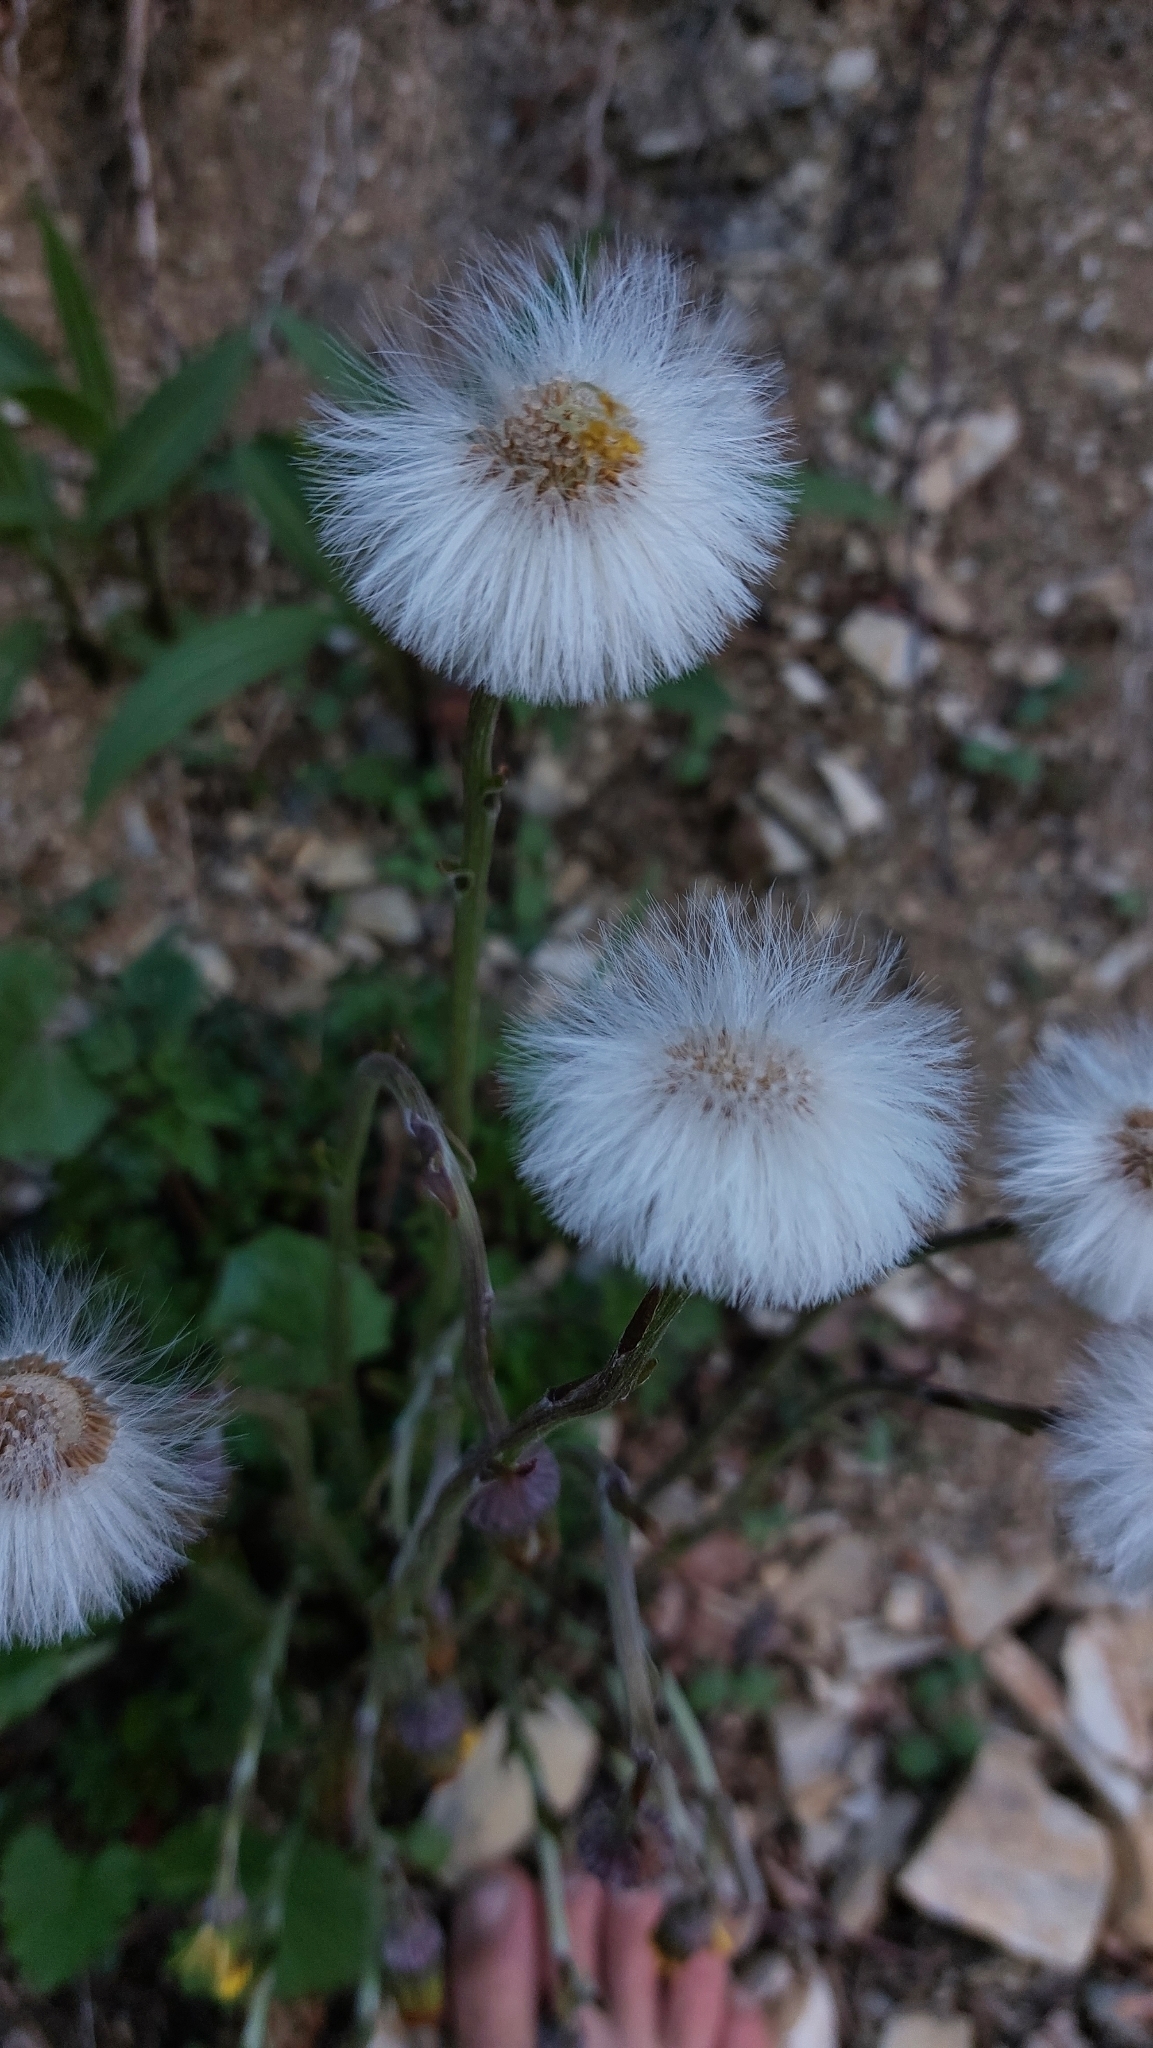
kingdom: Plantae
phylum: Tracheophyta
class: Magnoliopsida
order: Asterales
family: Asteraceae
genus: Tussilago
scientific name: Tussilago farfara
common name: Coltsfoot
